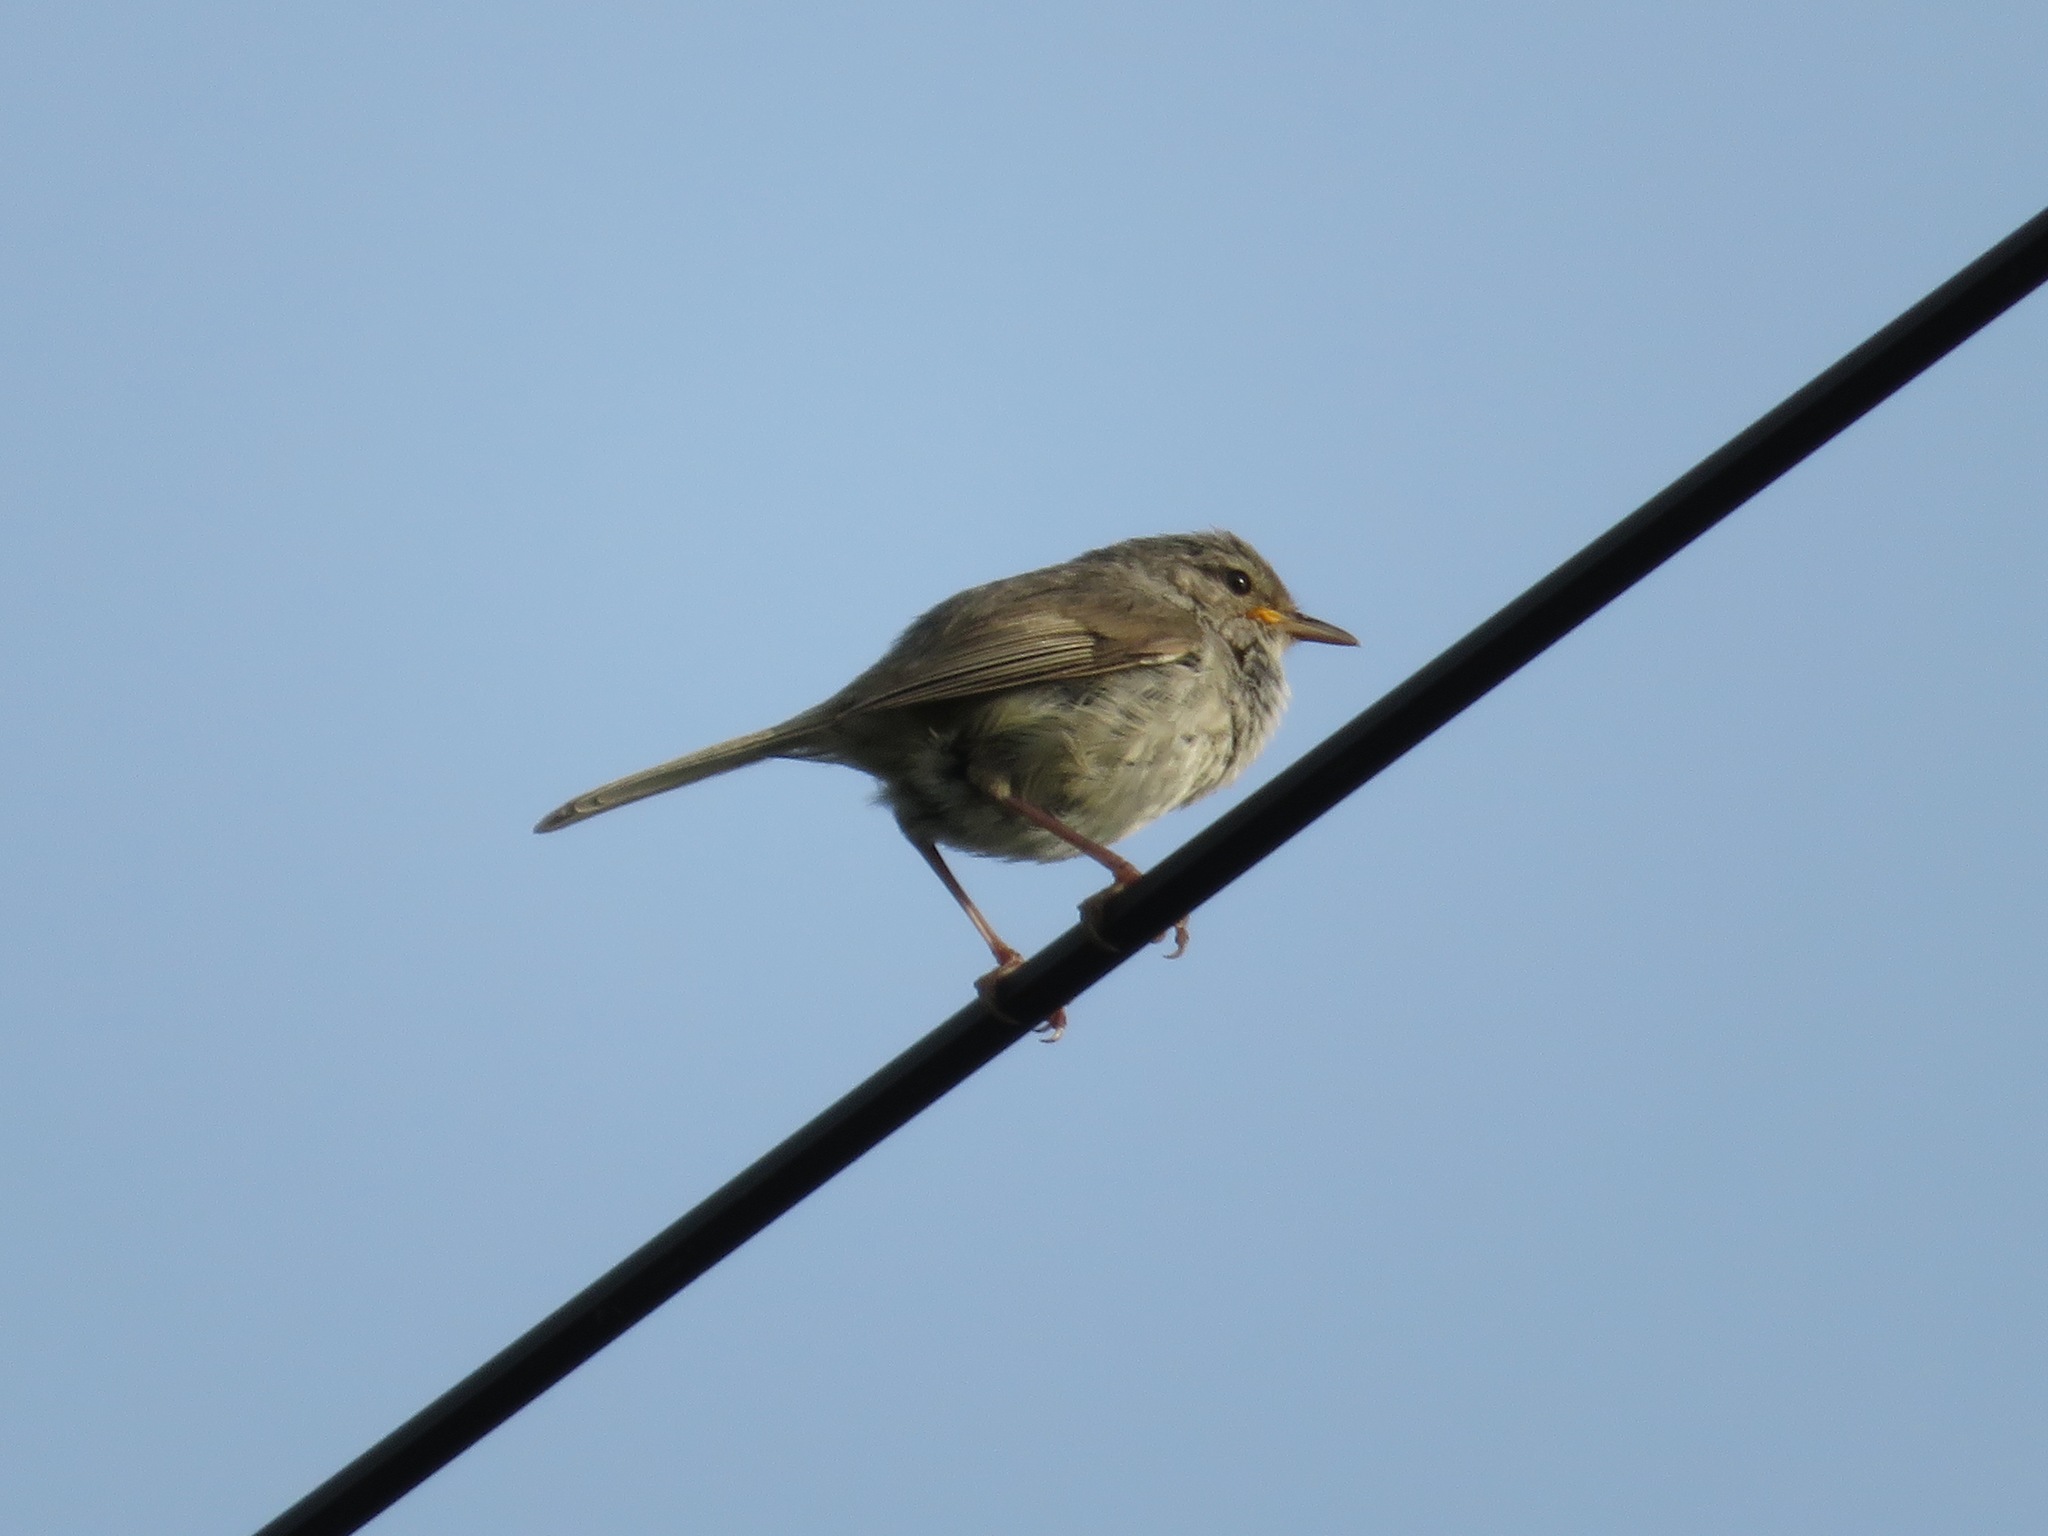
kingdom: Animalia
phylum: Chordata
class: Aves
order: Passeriformes
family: Cettiidae
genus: Horornis
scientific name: Horornis diphone
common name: Japanese bush warbler
